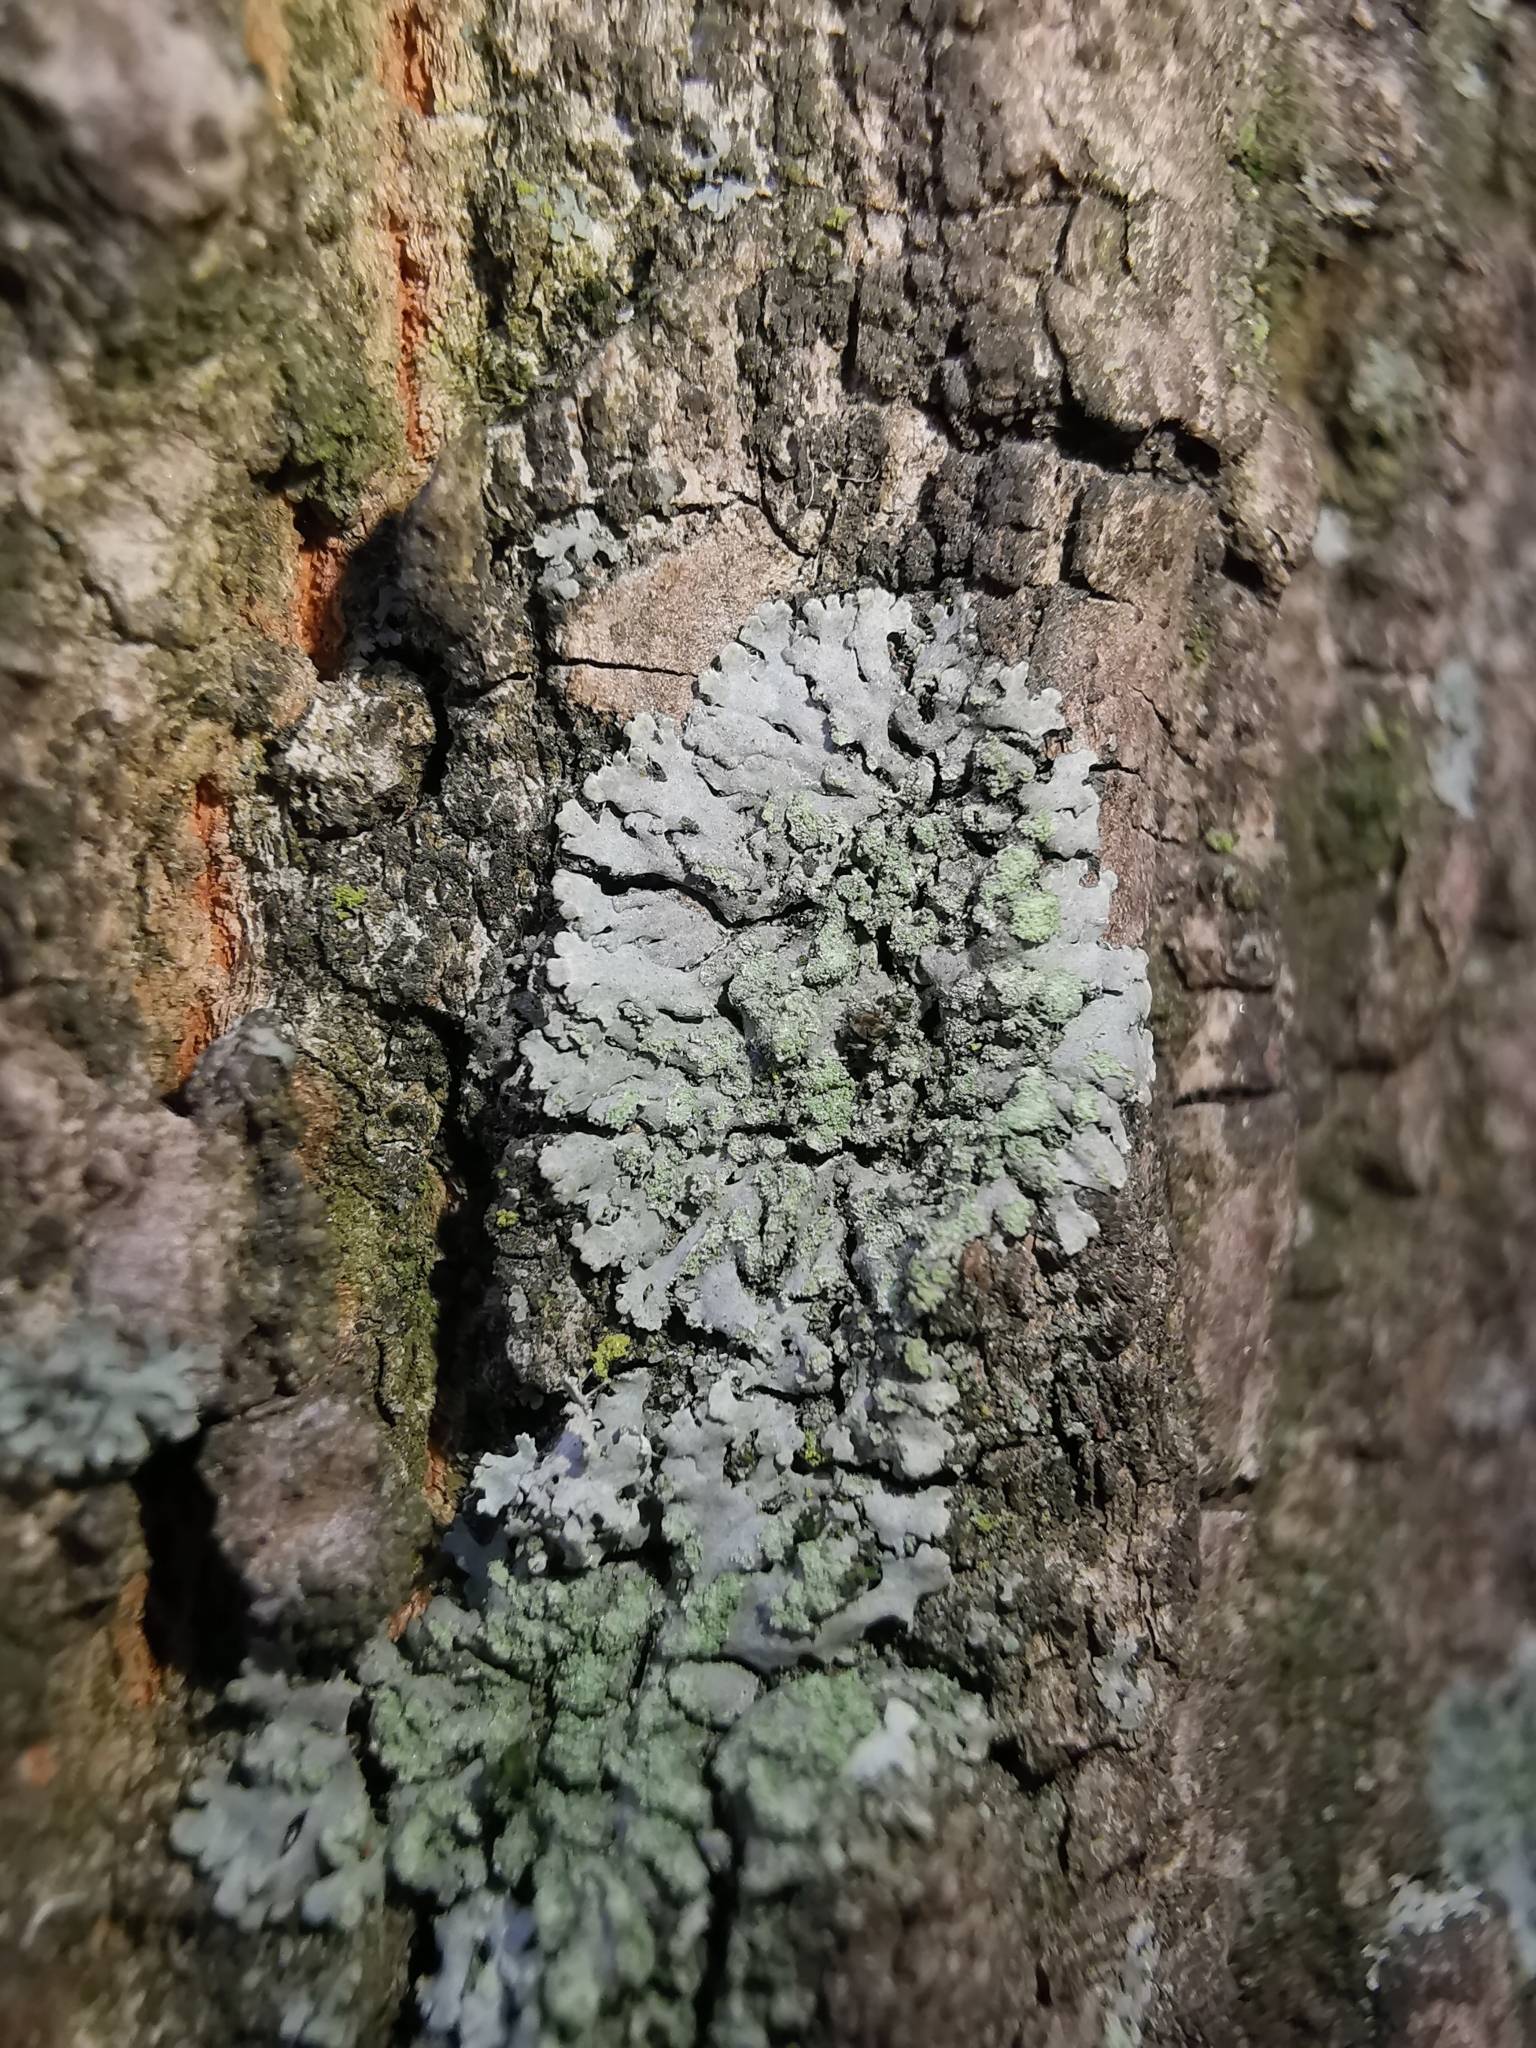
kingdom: Fungi
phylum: Ascomycota
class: Lecanoromycetes
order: Caliciales
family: Physciaceae
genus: Phaeophyscia
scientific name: Phaeophyscia orbicularis
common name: Mealy shadow lichen
